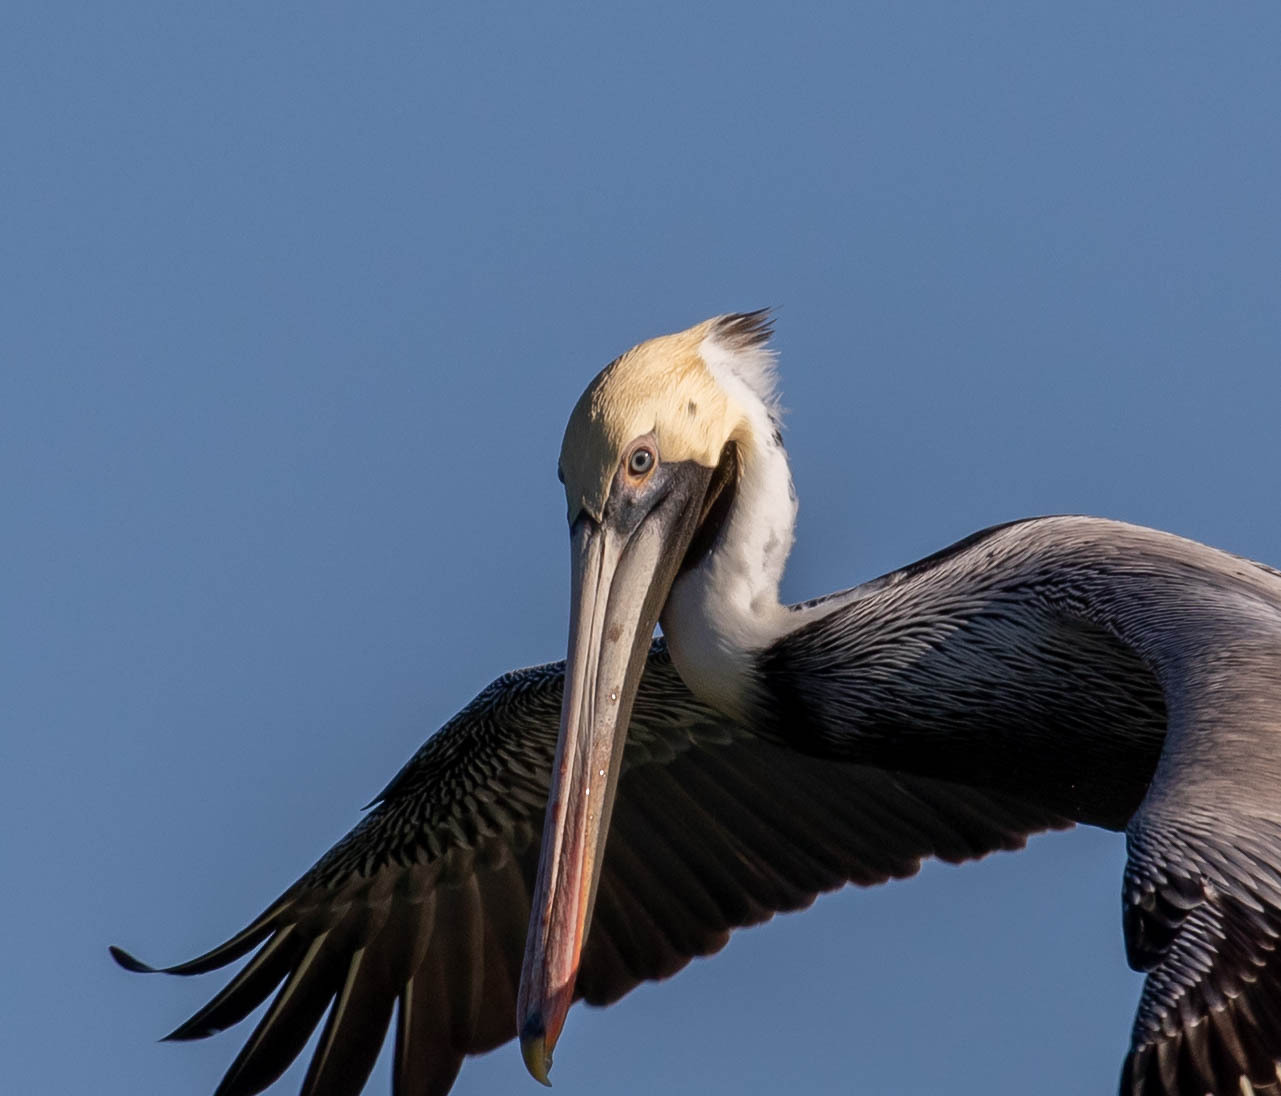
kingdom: Animalia
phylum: Chordata
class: Aves
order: Pelecaniformes
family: Pelecanidae
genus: Pelecanus
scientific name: Pelecanus occidentalis
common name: Brown pelican
